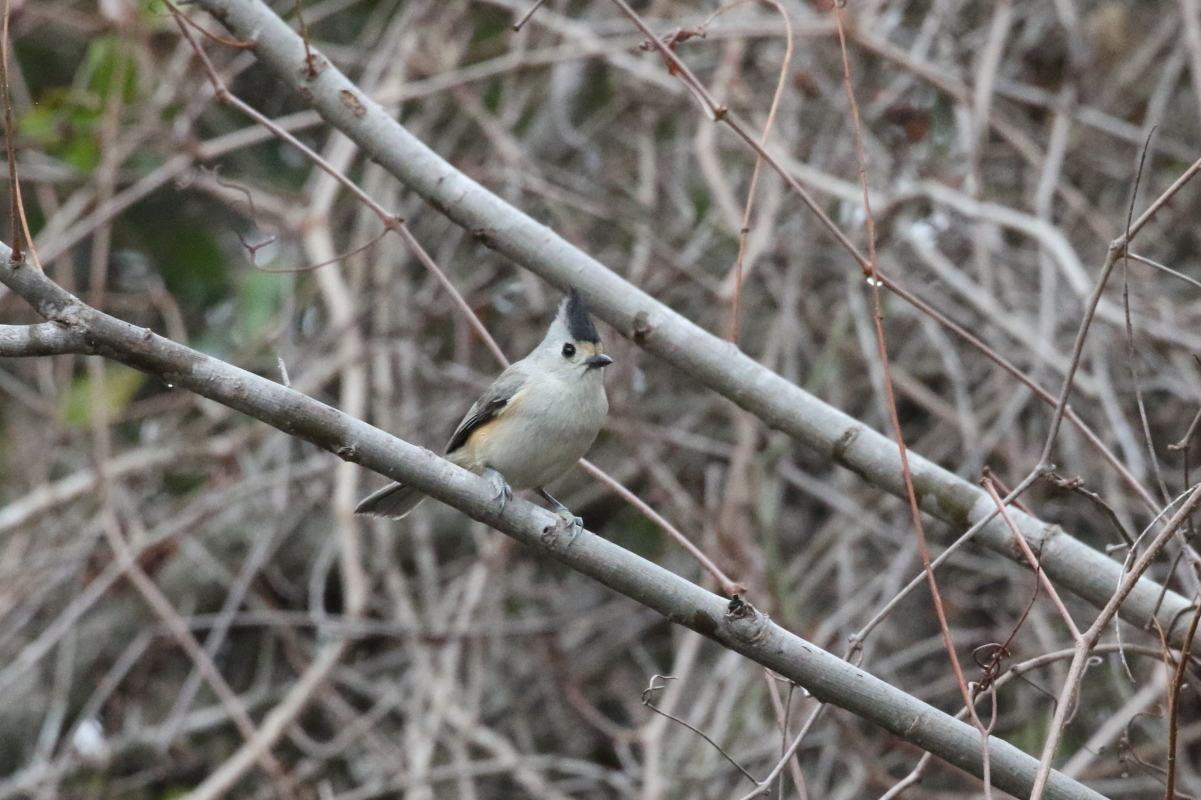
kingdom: Animalia
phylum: Chordata
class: Aves
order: Passeriformes
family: Paridae
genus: Baeolophus
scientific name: Baeolophus atricristatus
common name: Black-crested titmouse
